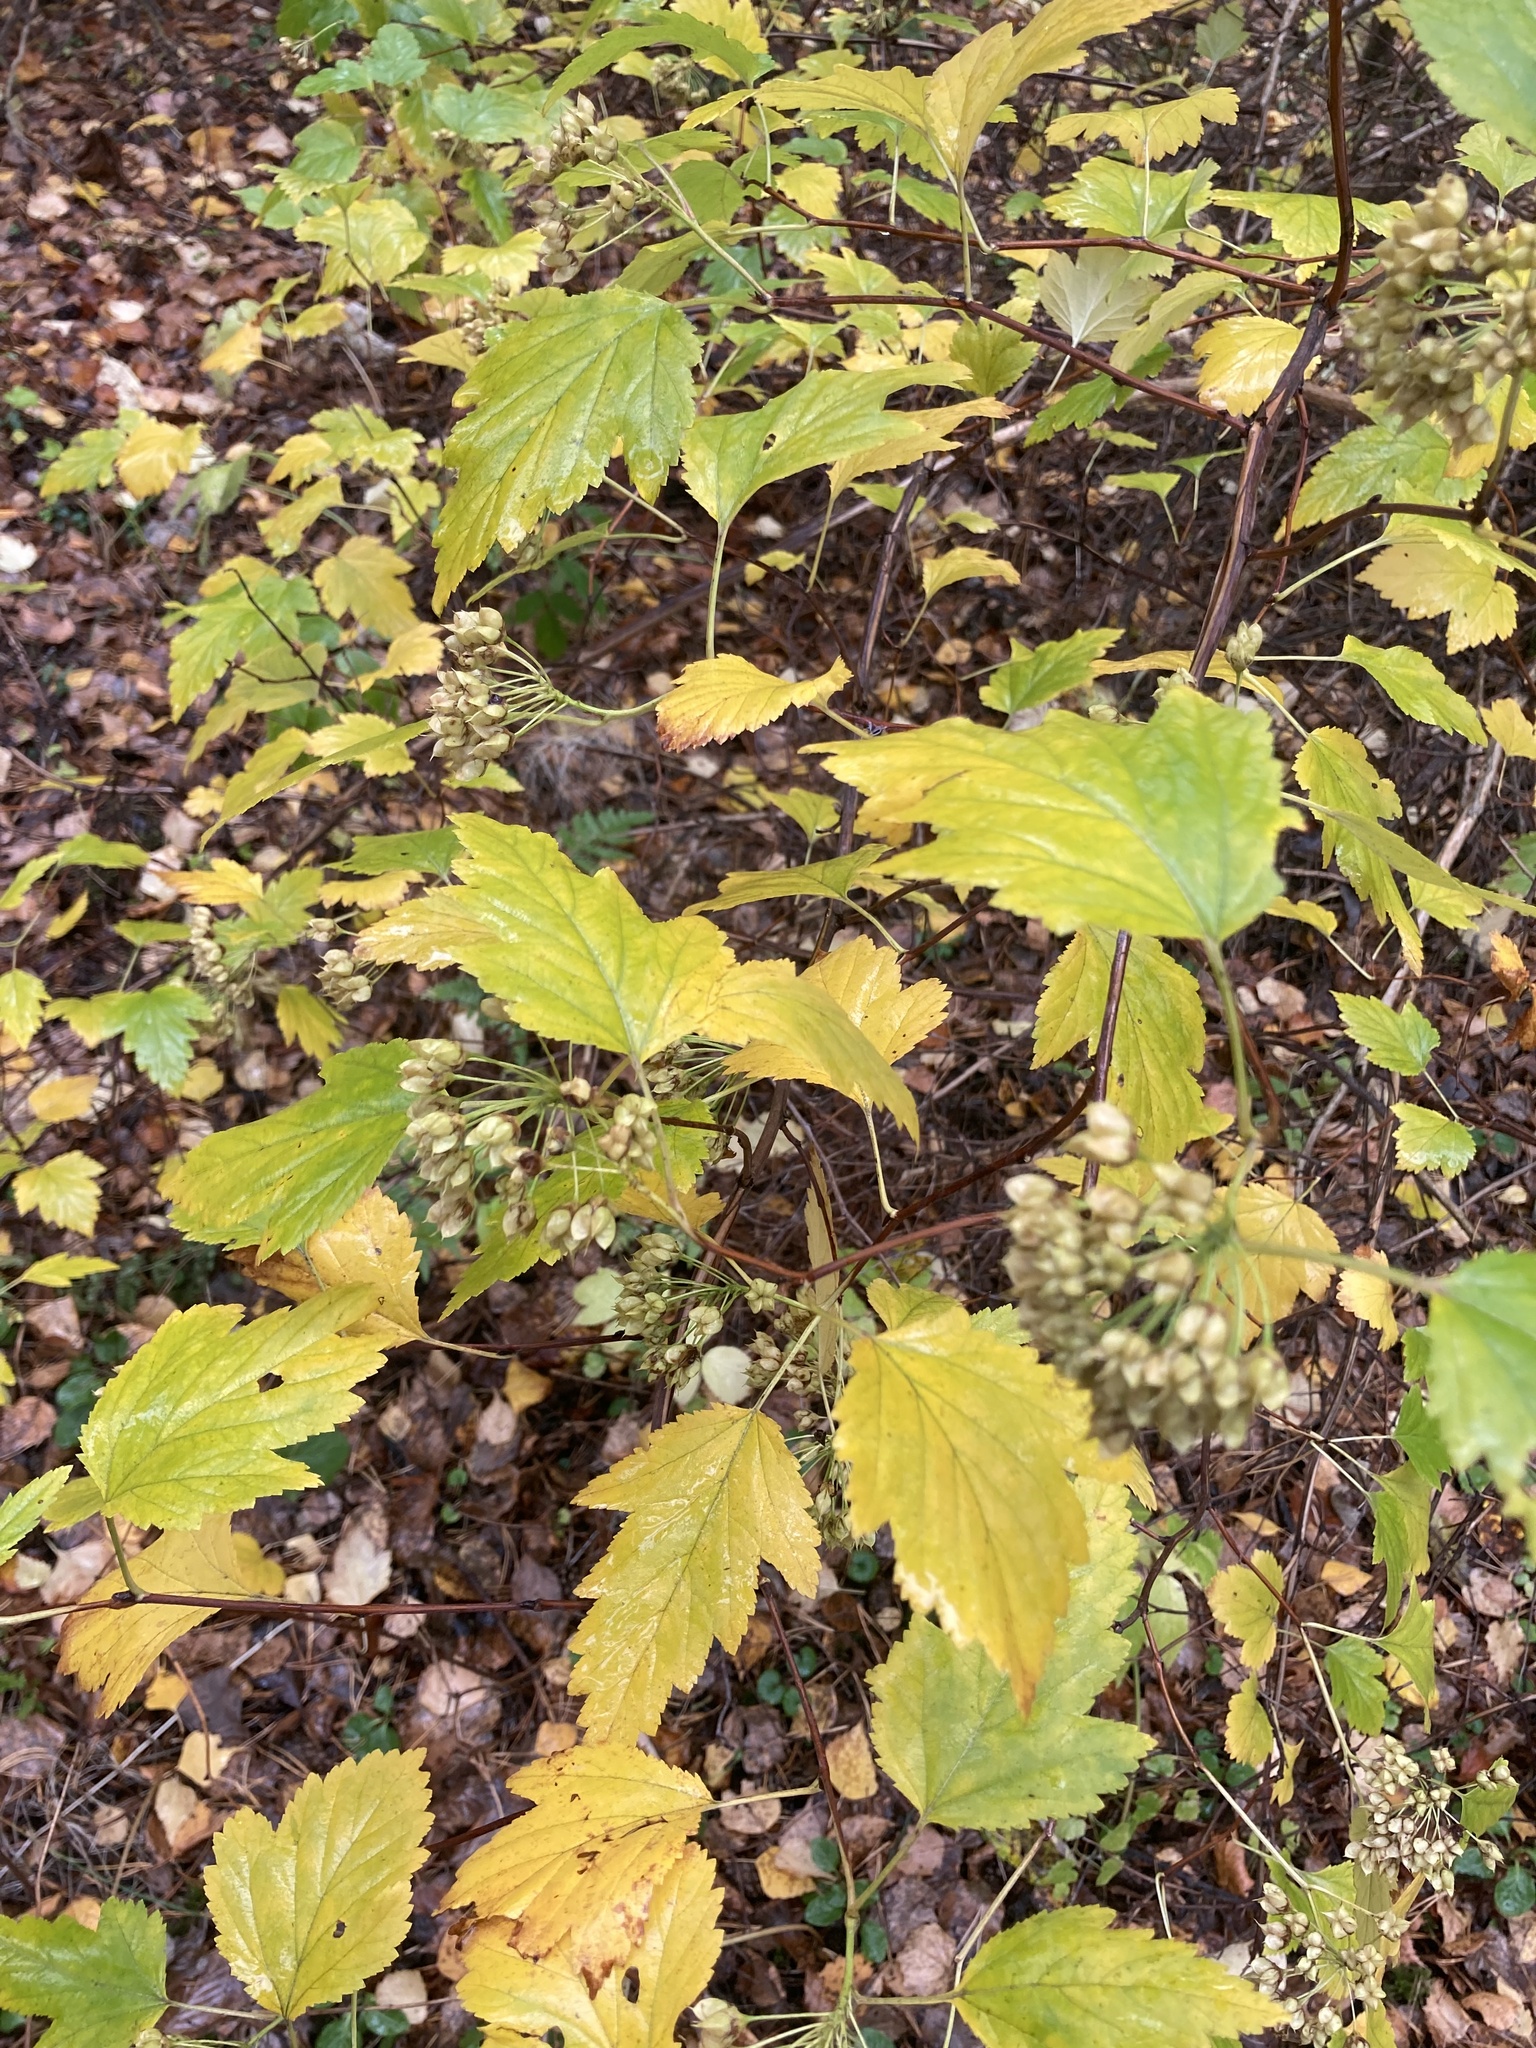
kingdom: Plantae
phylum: Tracheophyta
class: Magnoliopsida
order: Rosales
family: Rosaceae
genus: Physocarpus
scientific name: Physocarpus opulifolius
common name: Ninebark
